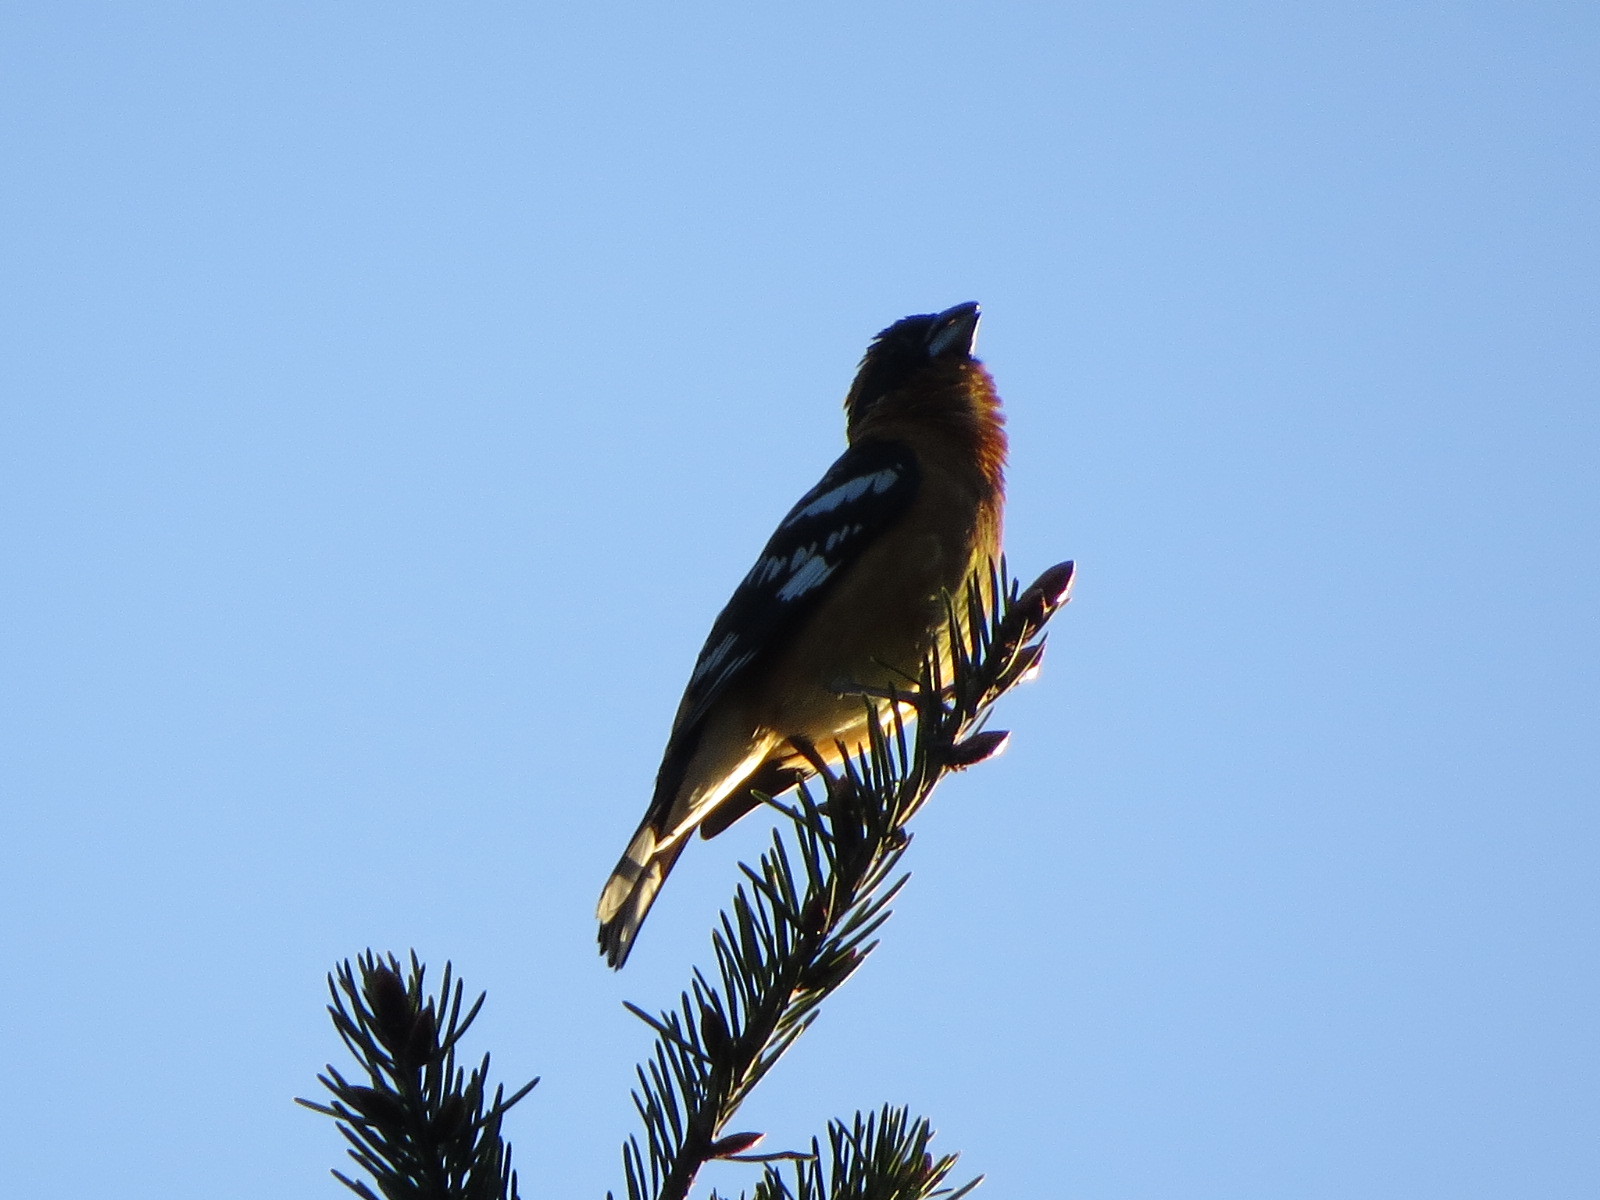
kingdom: Animalia
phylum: Chordata
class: Aves
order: Passeriformes
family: Cardinalidae
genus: Pheucticus
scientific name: Pheucticus melanocephalus
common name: Black-headed grosbeak
